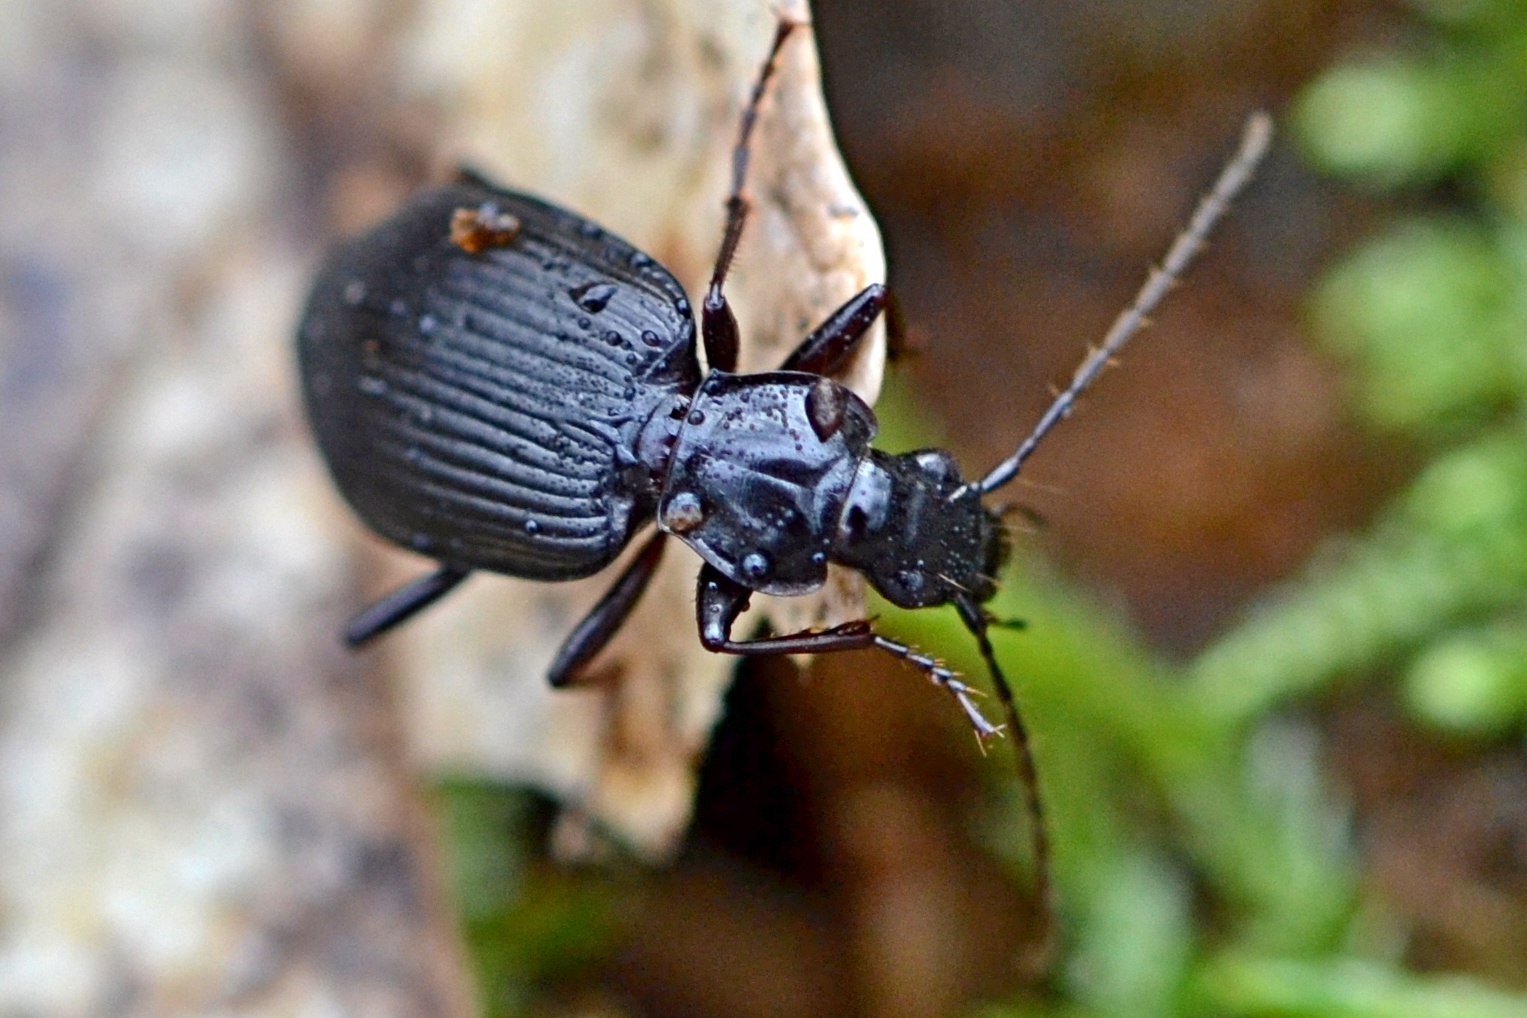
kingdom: Animalia
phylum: Arthropoda
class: Insecta
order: Coleoptera
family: Carabidae
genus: Platynus
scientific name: Platynus assimilis
